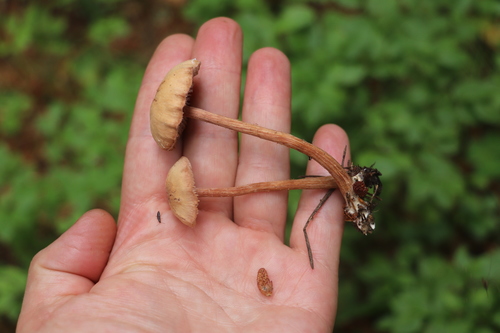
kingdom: Fungi
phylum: Basidiomycota
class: Agaricomycetes
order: Agaricales
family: Hydnangiaceae
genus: Laccaria
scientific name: Laccaria laccata
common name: Deceiver
